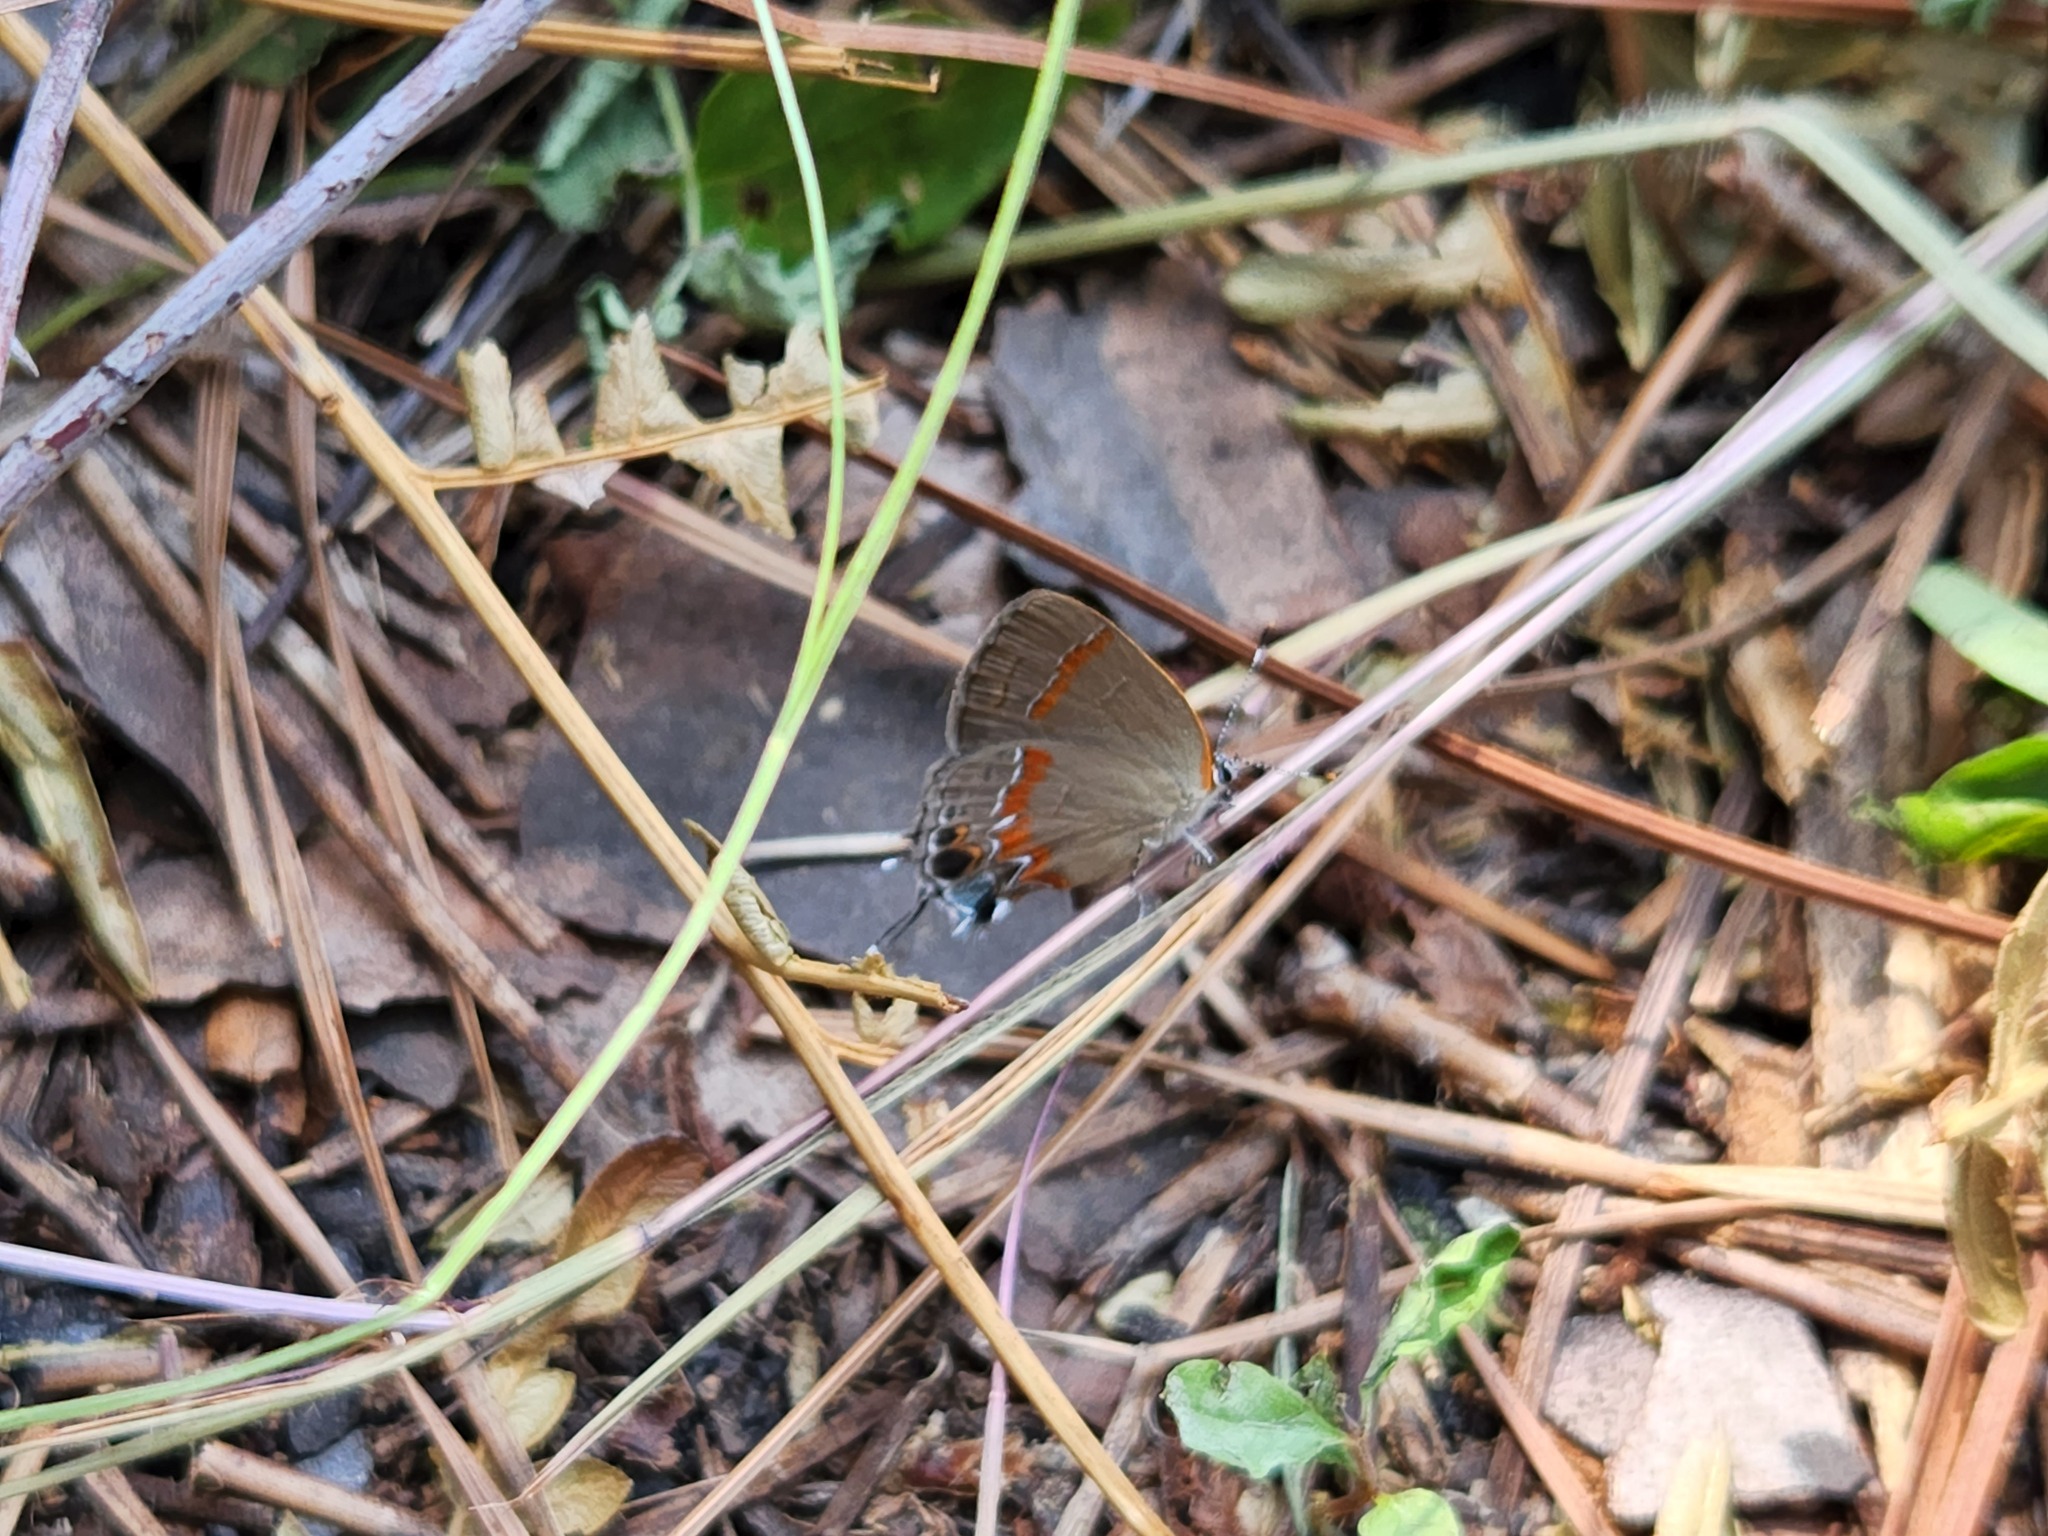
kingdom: Animalia
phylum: Arthropoda
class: Insecta
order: Lepidoptera
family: Lycaenidae
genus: Calycopis
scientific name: Calycopis cecrops
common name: Red-banded hairstreak
